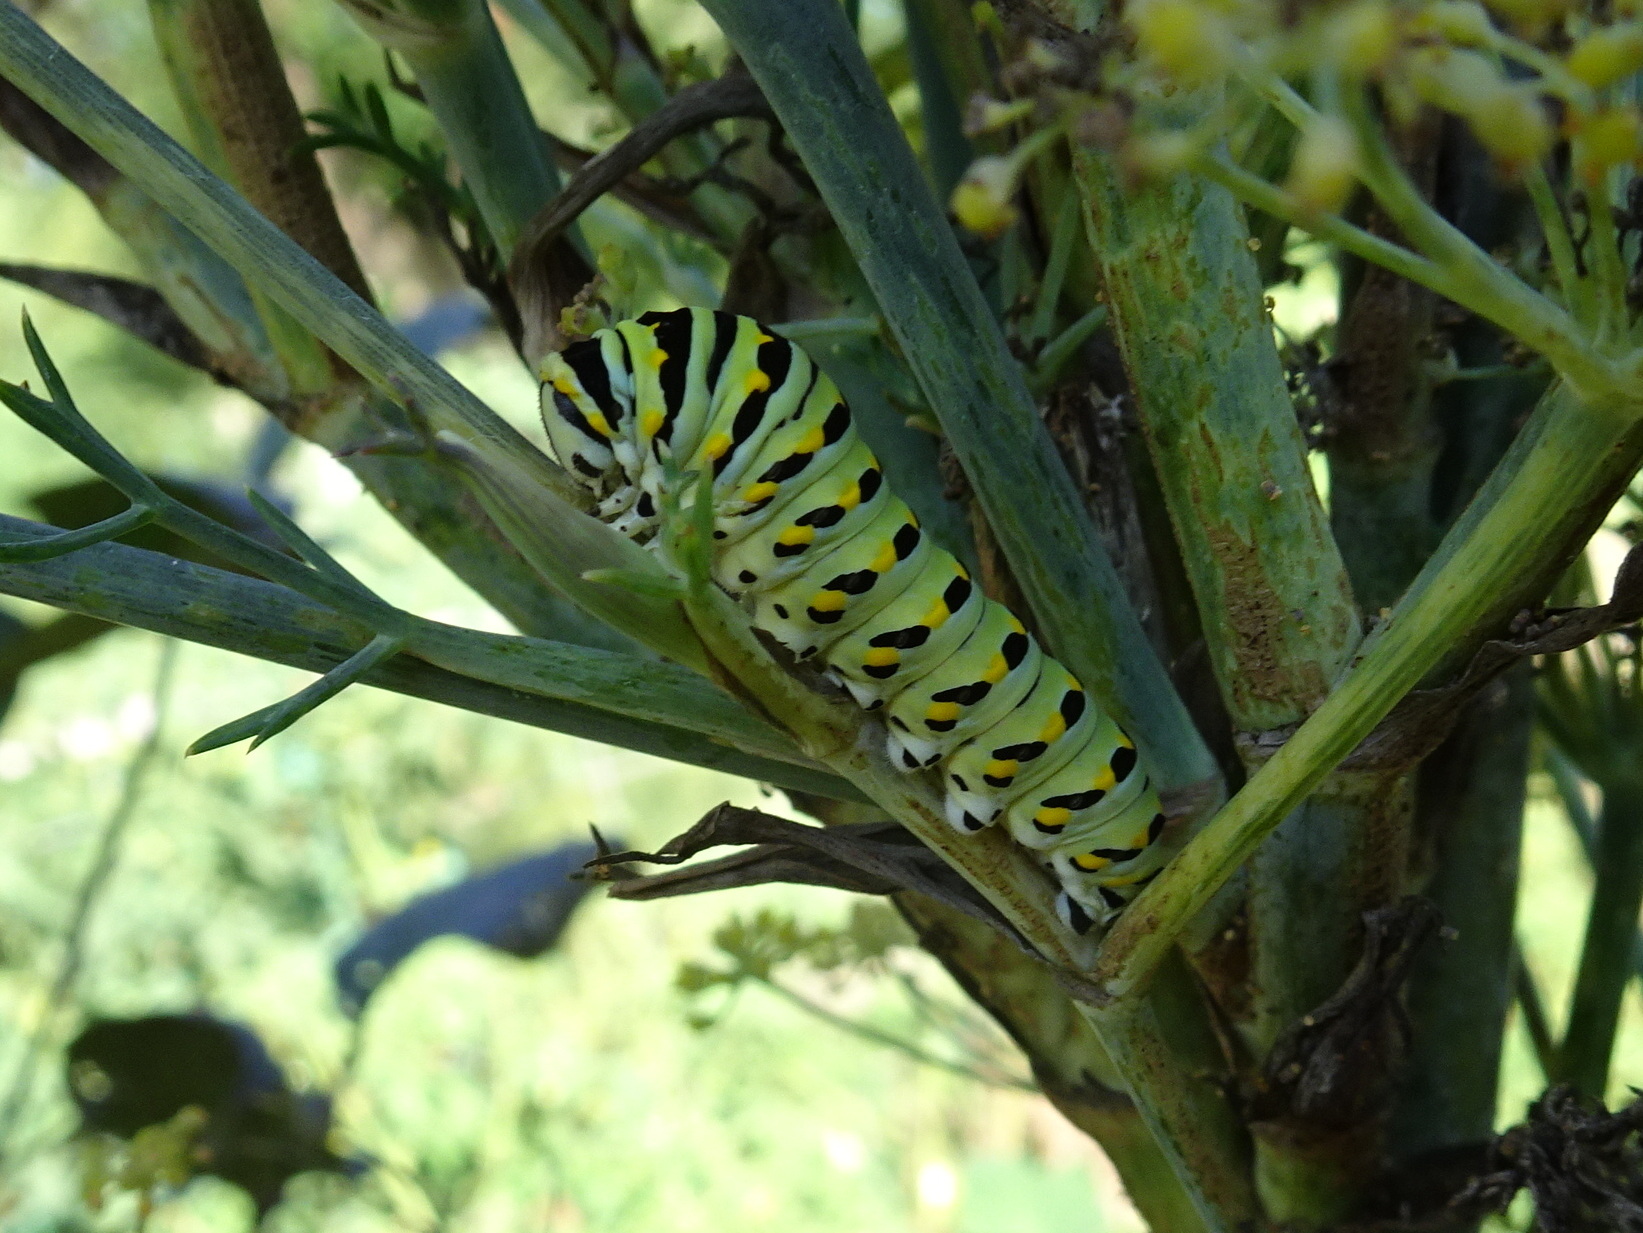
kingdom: Animalia
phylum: Arthropoda
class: Insecta
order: Lepidoptera
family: Papilionidae
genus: Papilio
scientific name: Papilio polyxenes
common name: Black swallowtail
